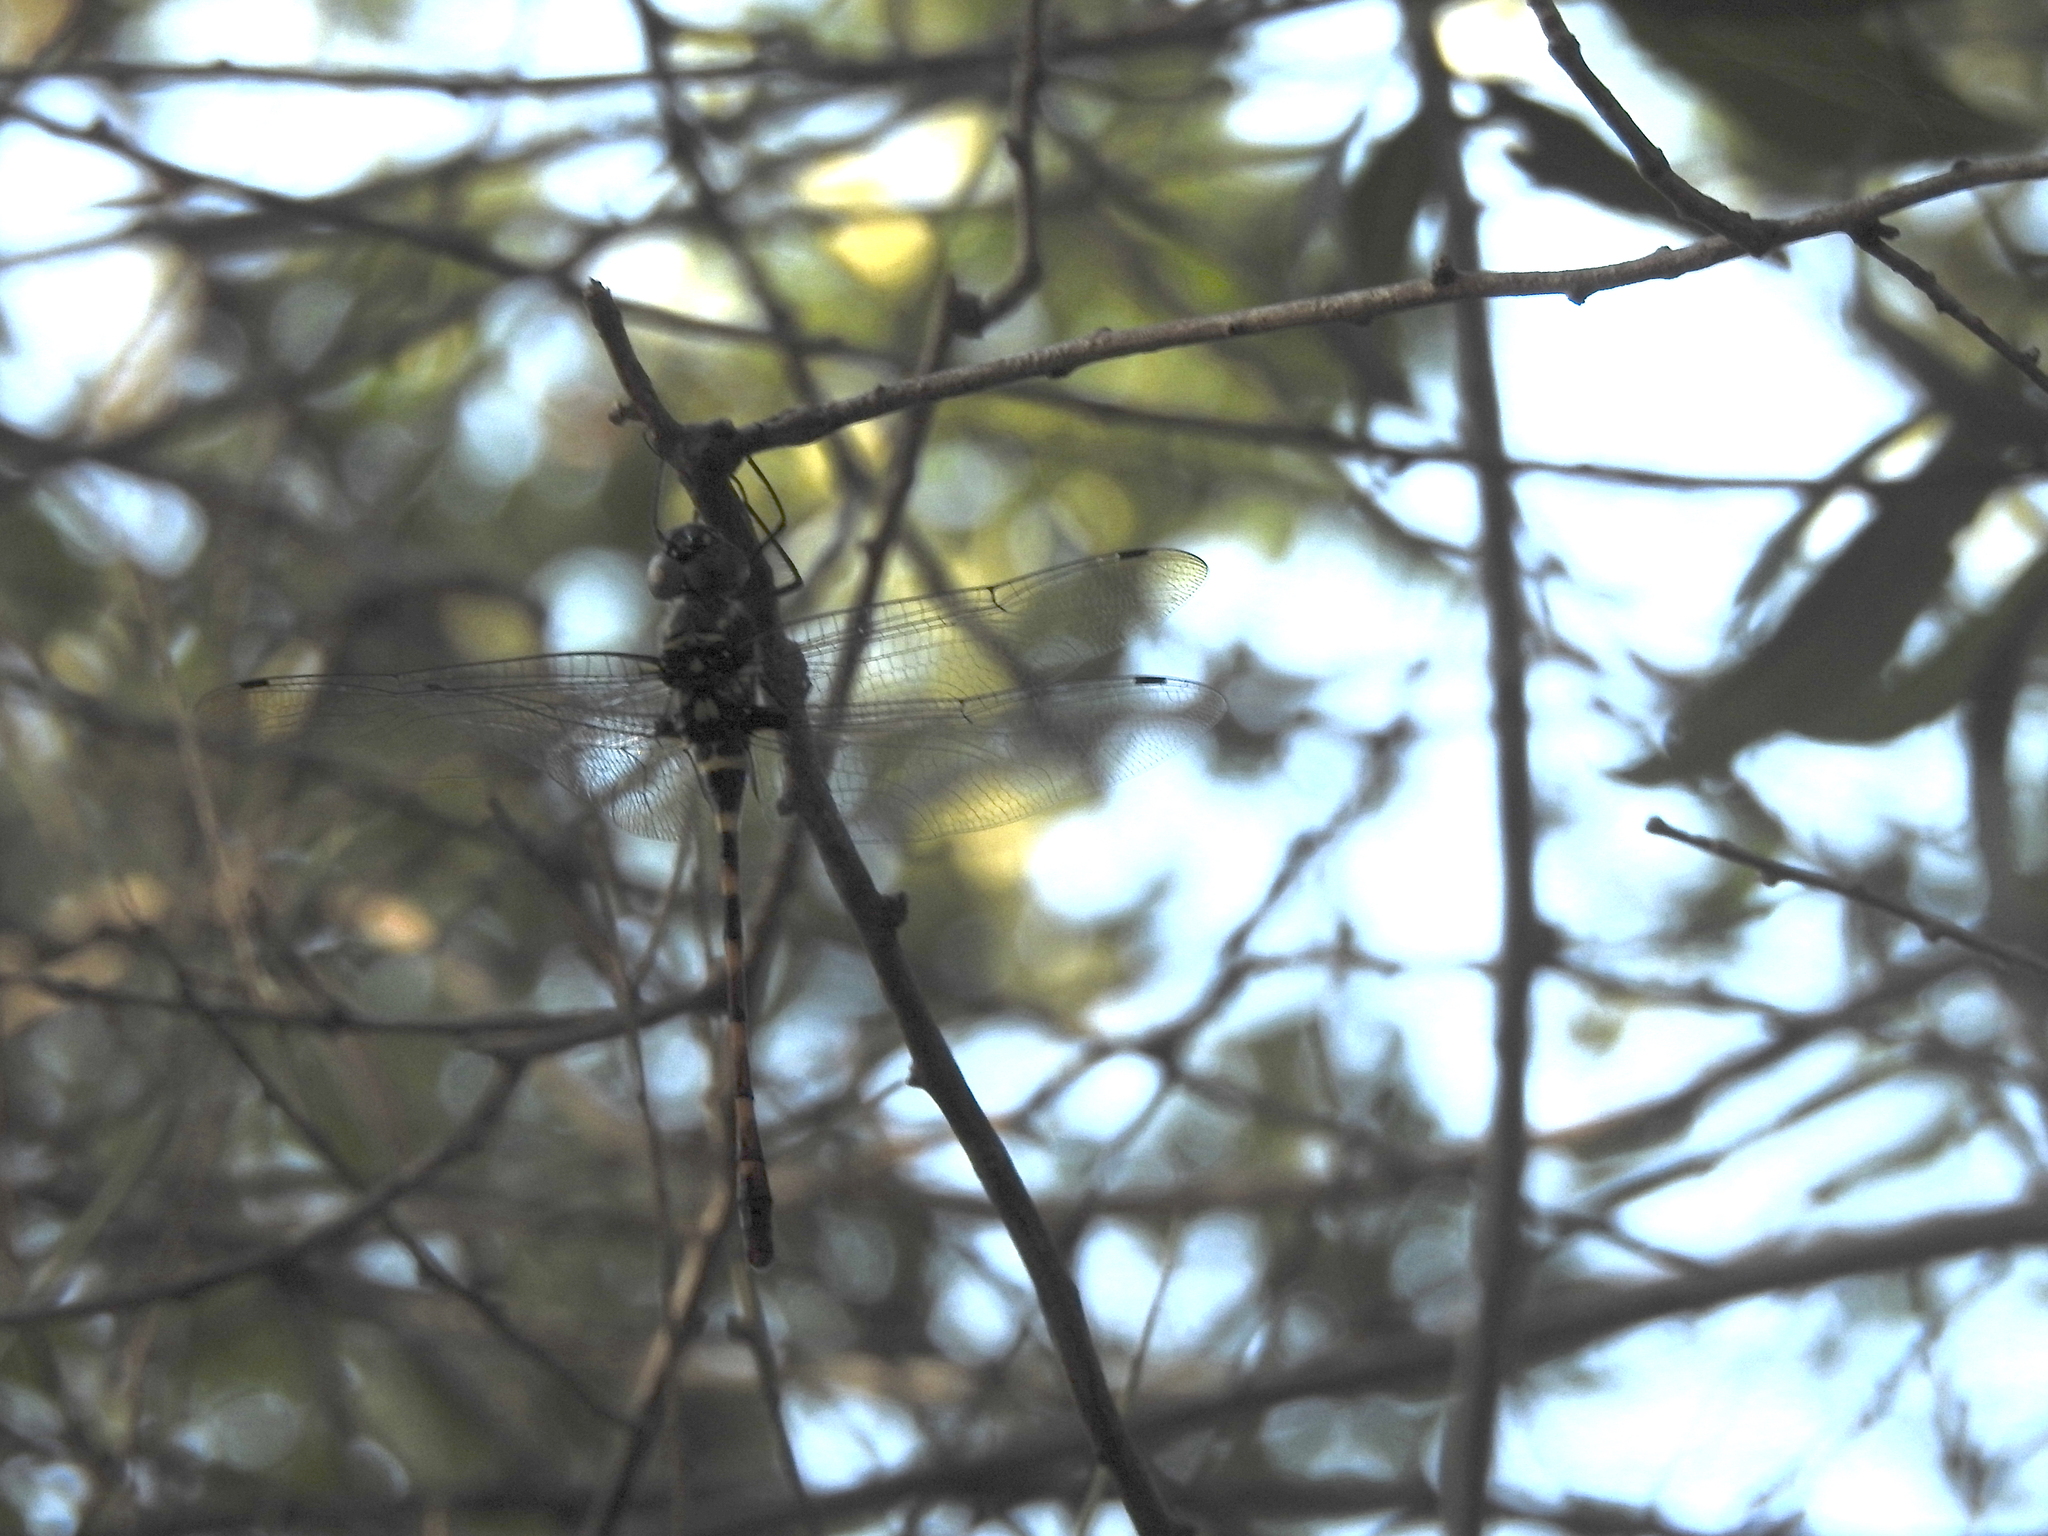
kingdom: Animalia
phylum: Arthropoda
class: Insecta
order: Odonata
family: Macromiidae
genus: Epophthalmia
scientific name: Epophthalmia vittata
